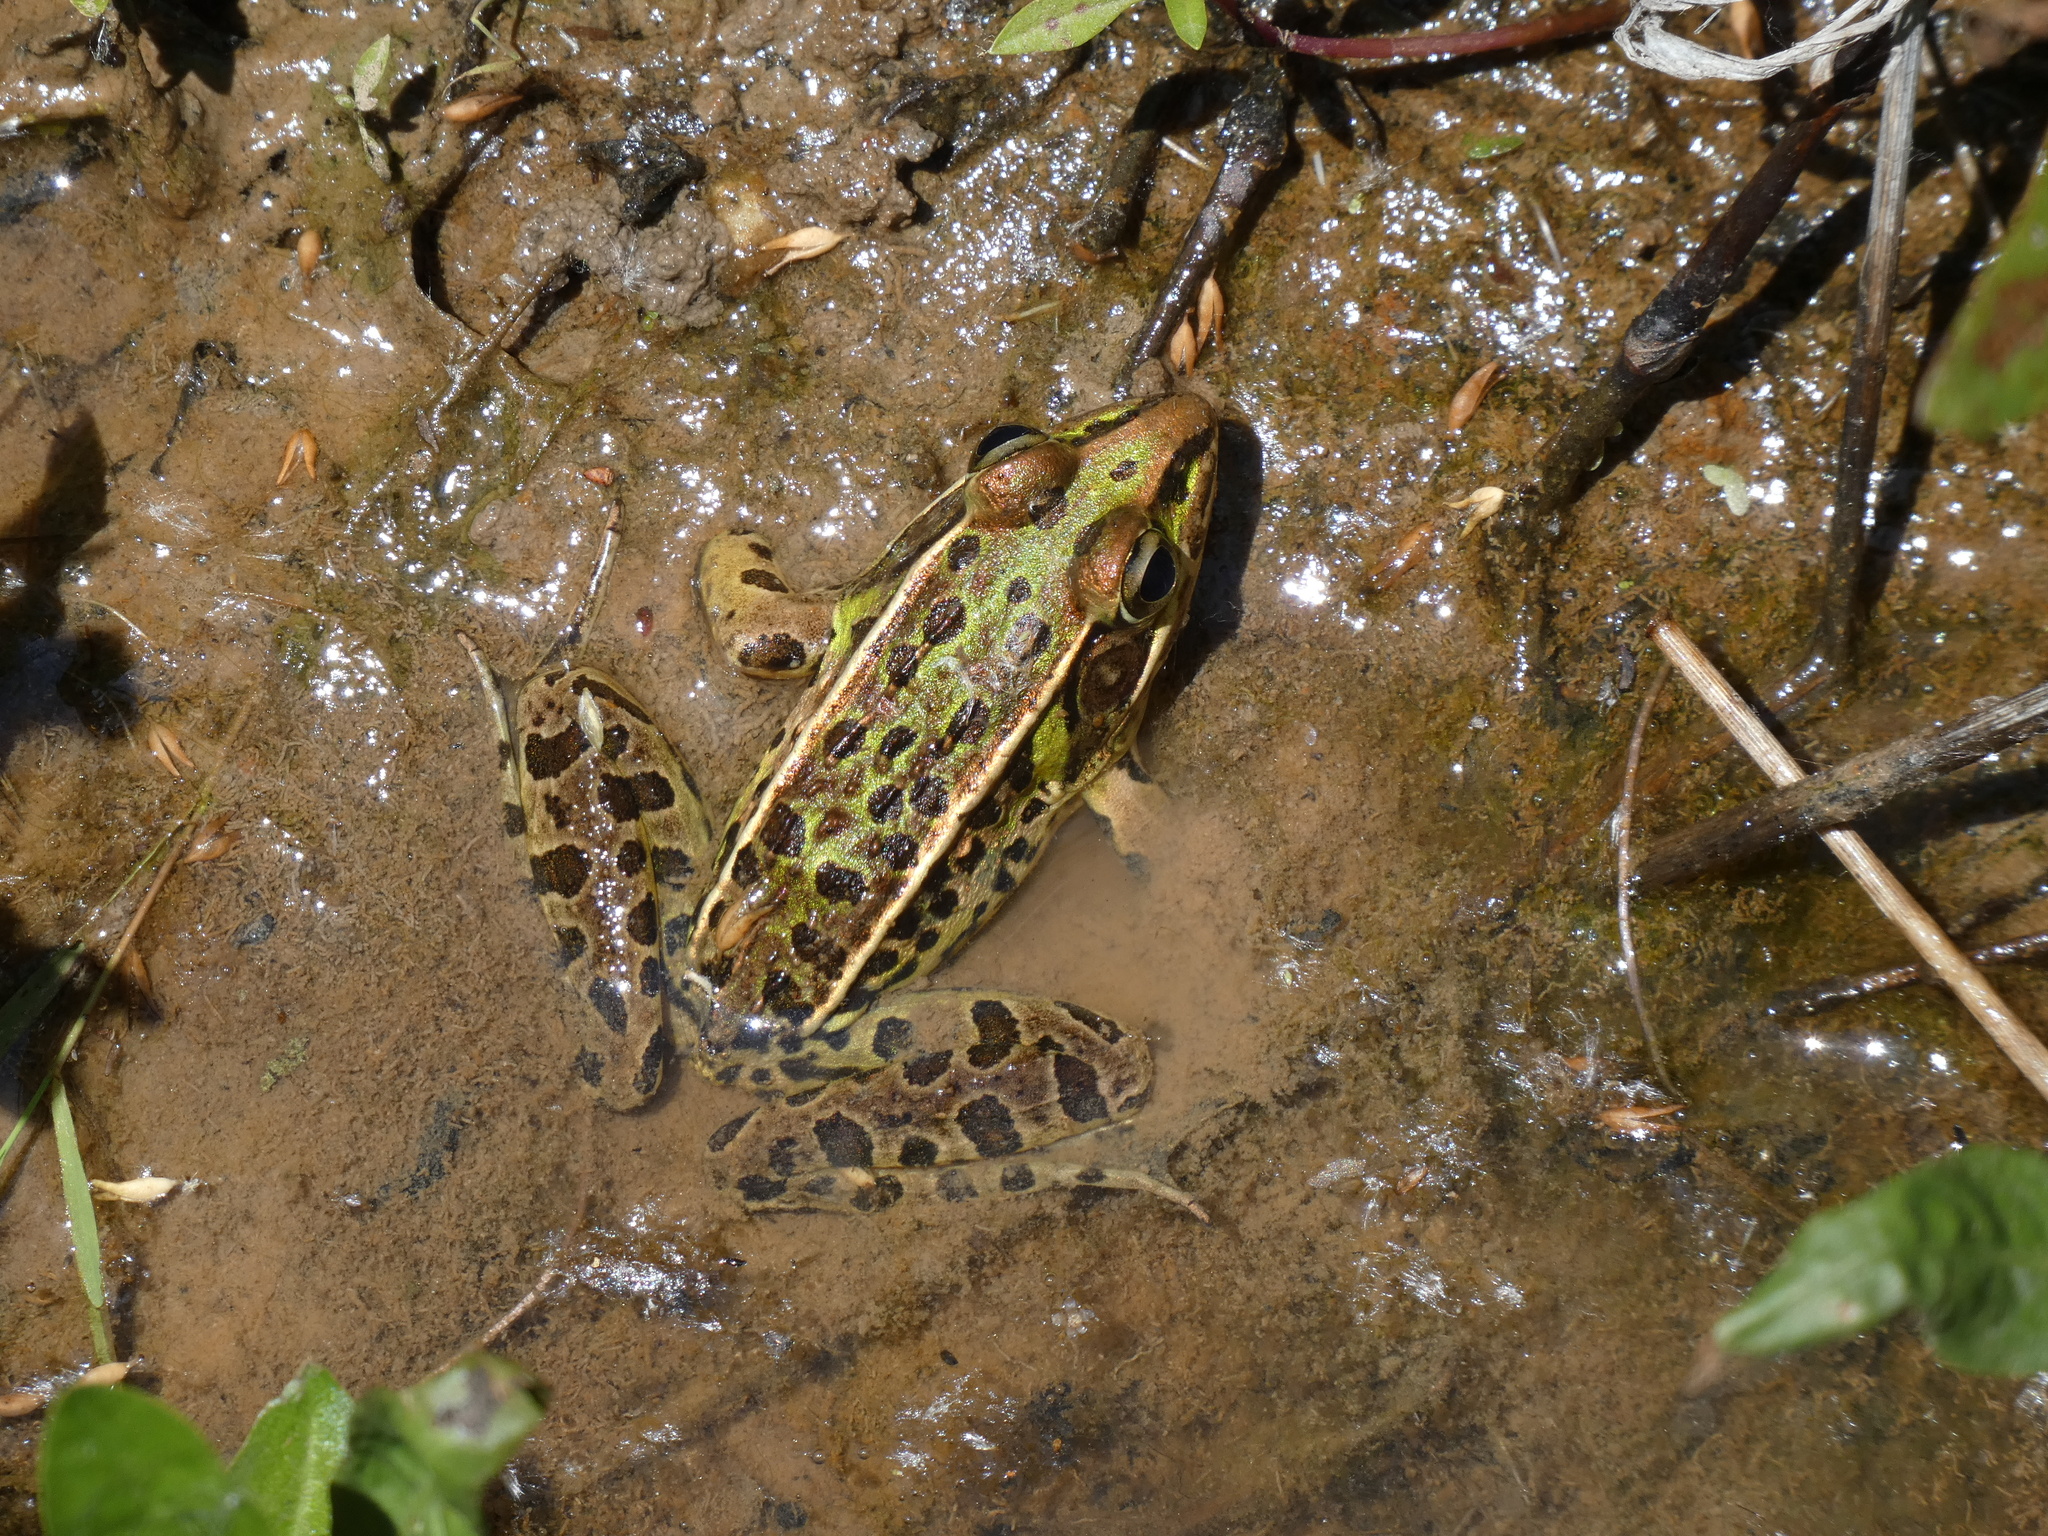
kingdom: Animalia
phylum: Chordata
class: Amphibia
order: Anura
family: Ranidae
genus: Lithobates
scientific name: Lithobates sphenocephalus
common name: Southern leopard frog
